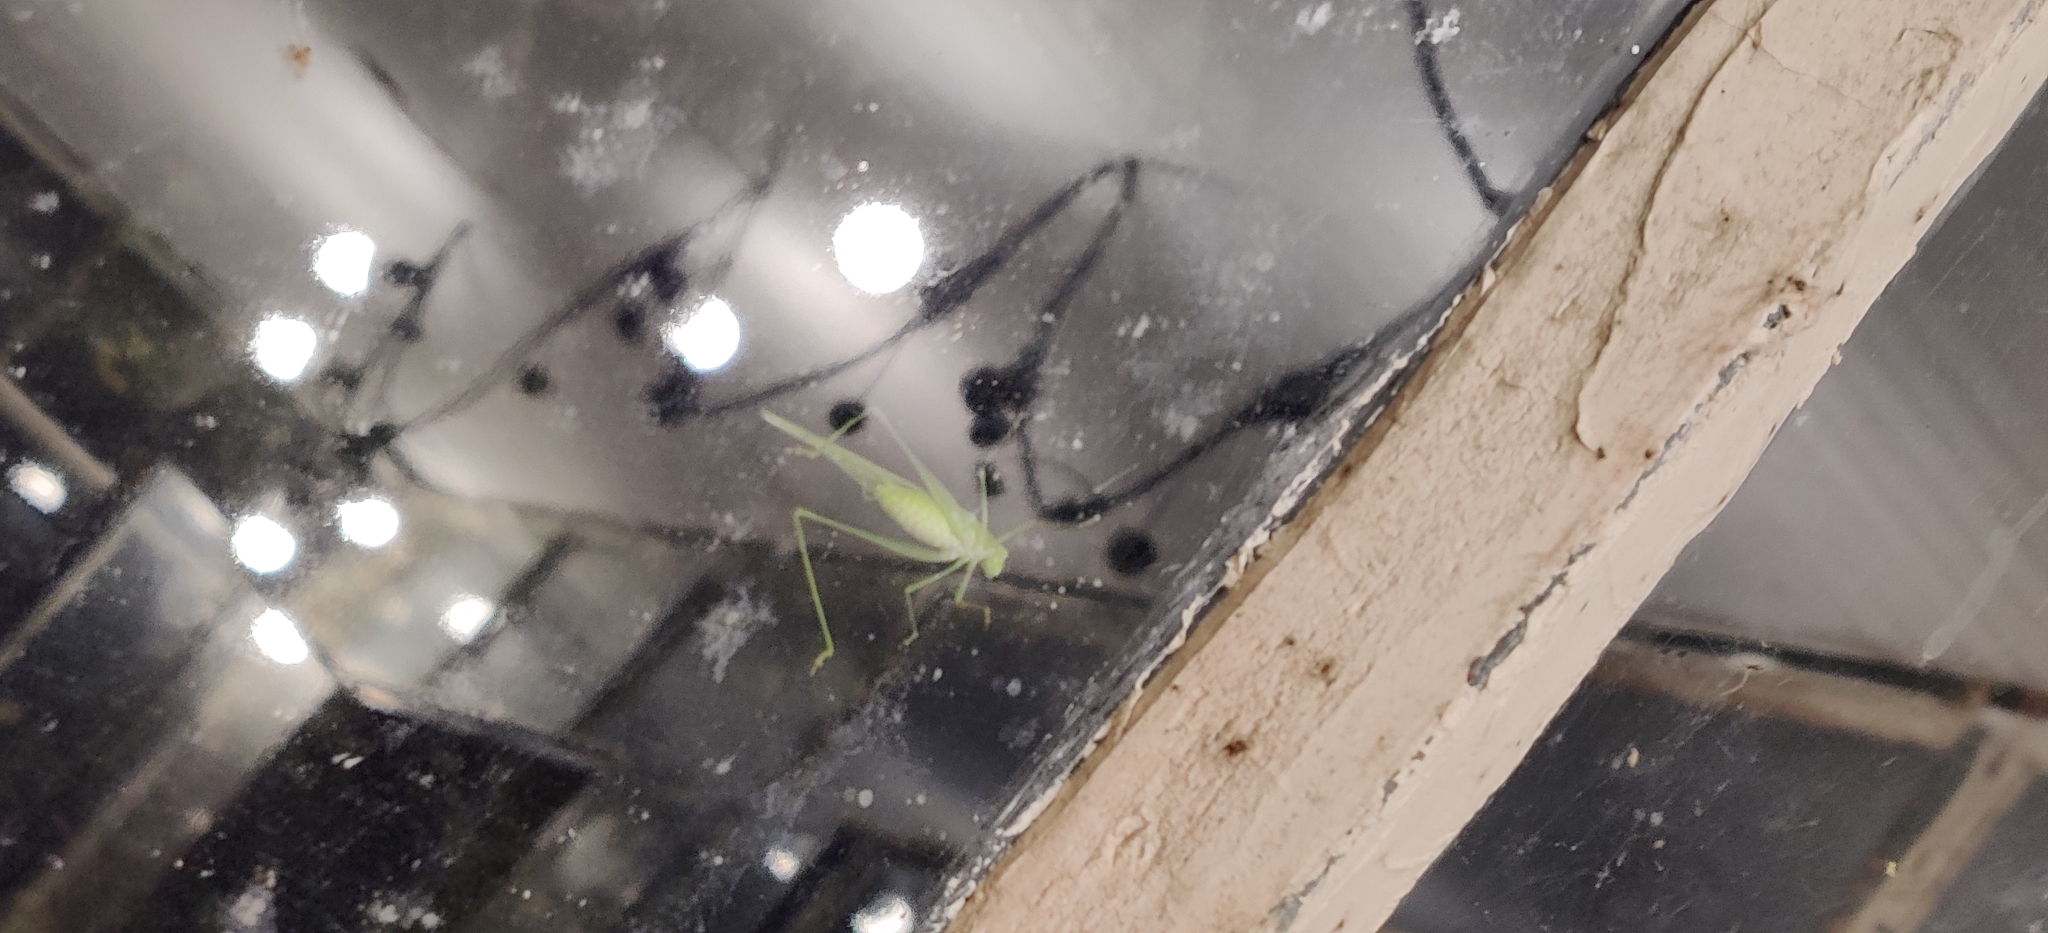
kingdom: Animalia
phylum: Arthropoda
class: Insecta
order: Orthoptera
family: Tettigoniidae
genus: Phaneroptera
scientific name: Phaneroptera nana
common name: Southern sickle bush-cricket
